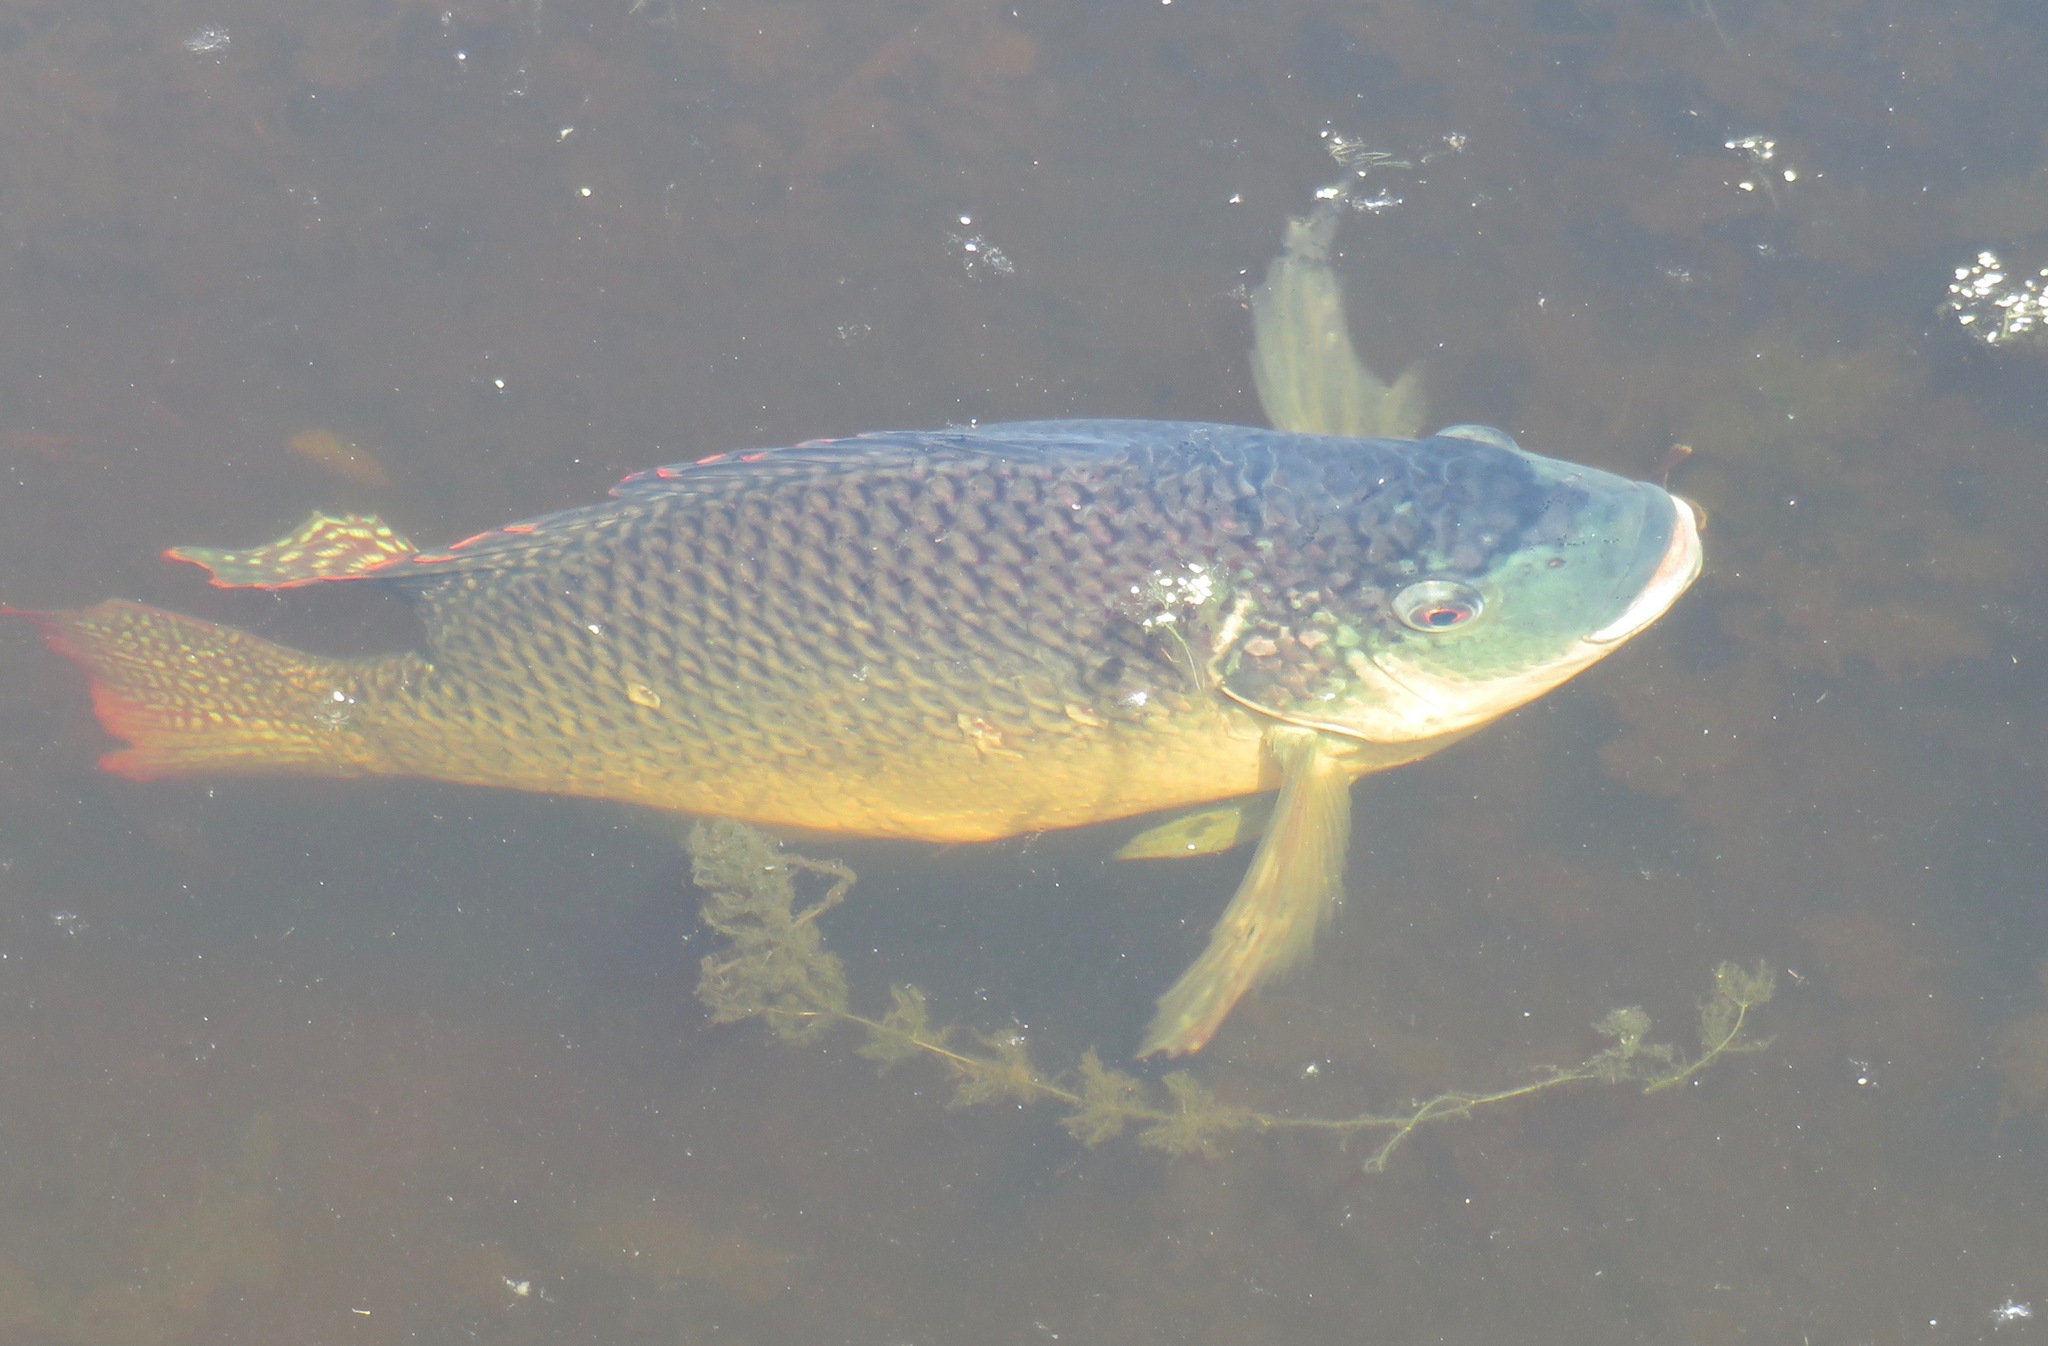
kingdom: Animalia
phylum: Chordata
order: Perciformes
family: Cichlidae
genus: Oreochromis
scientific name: Oreochromis aureus
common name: Blue tilapia
